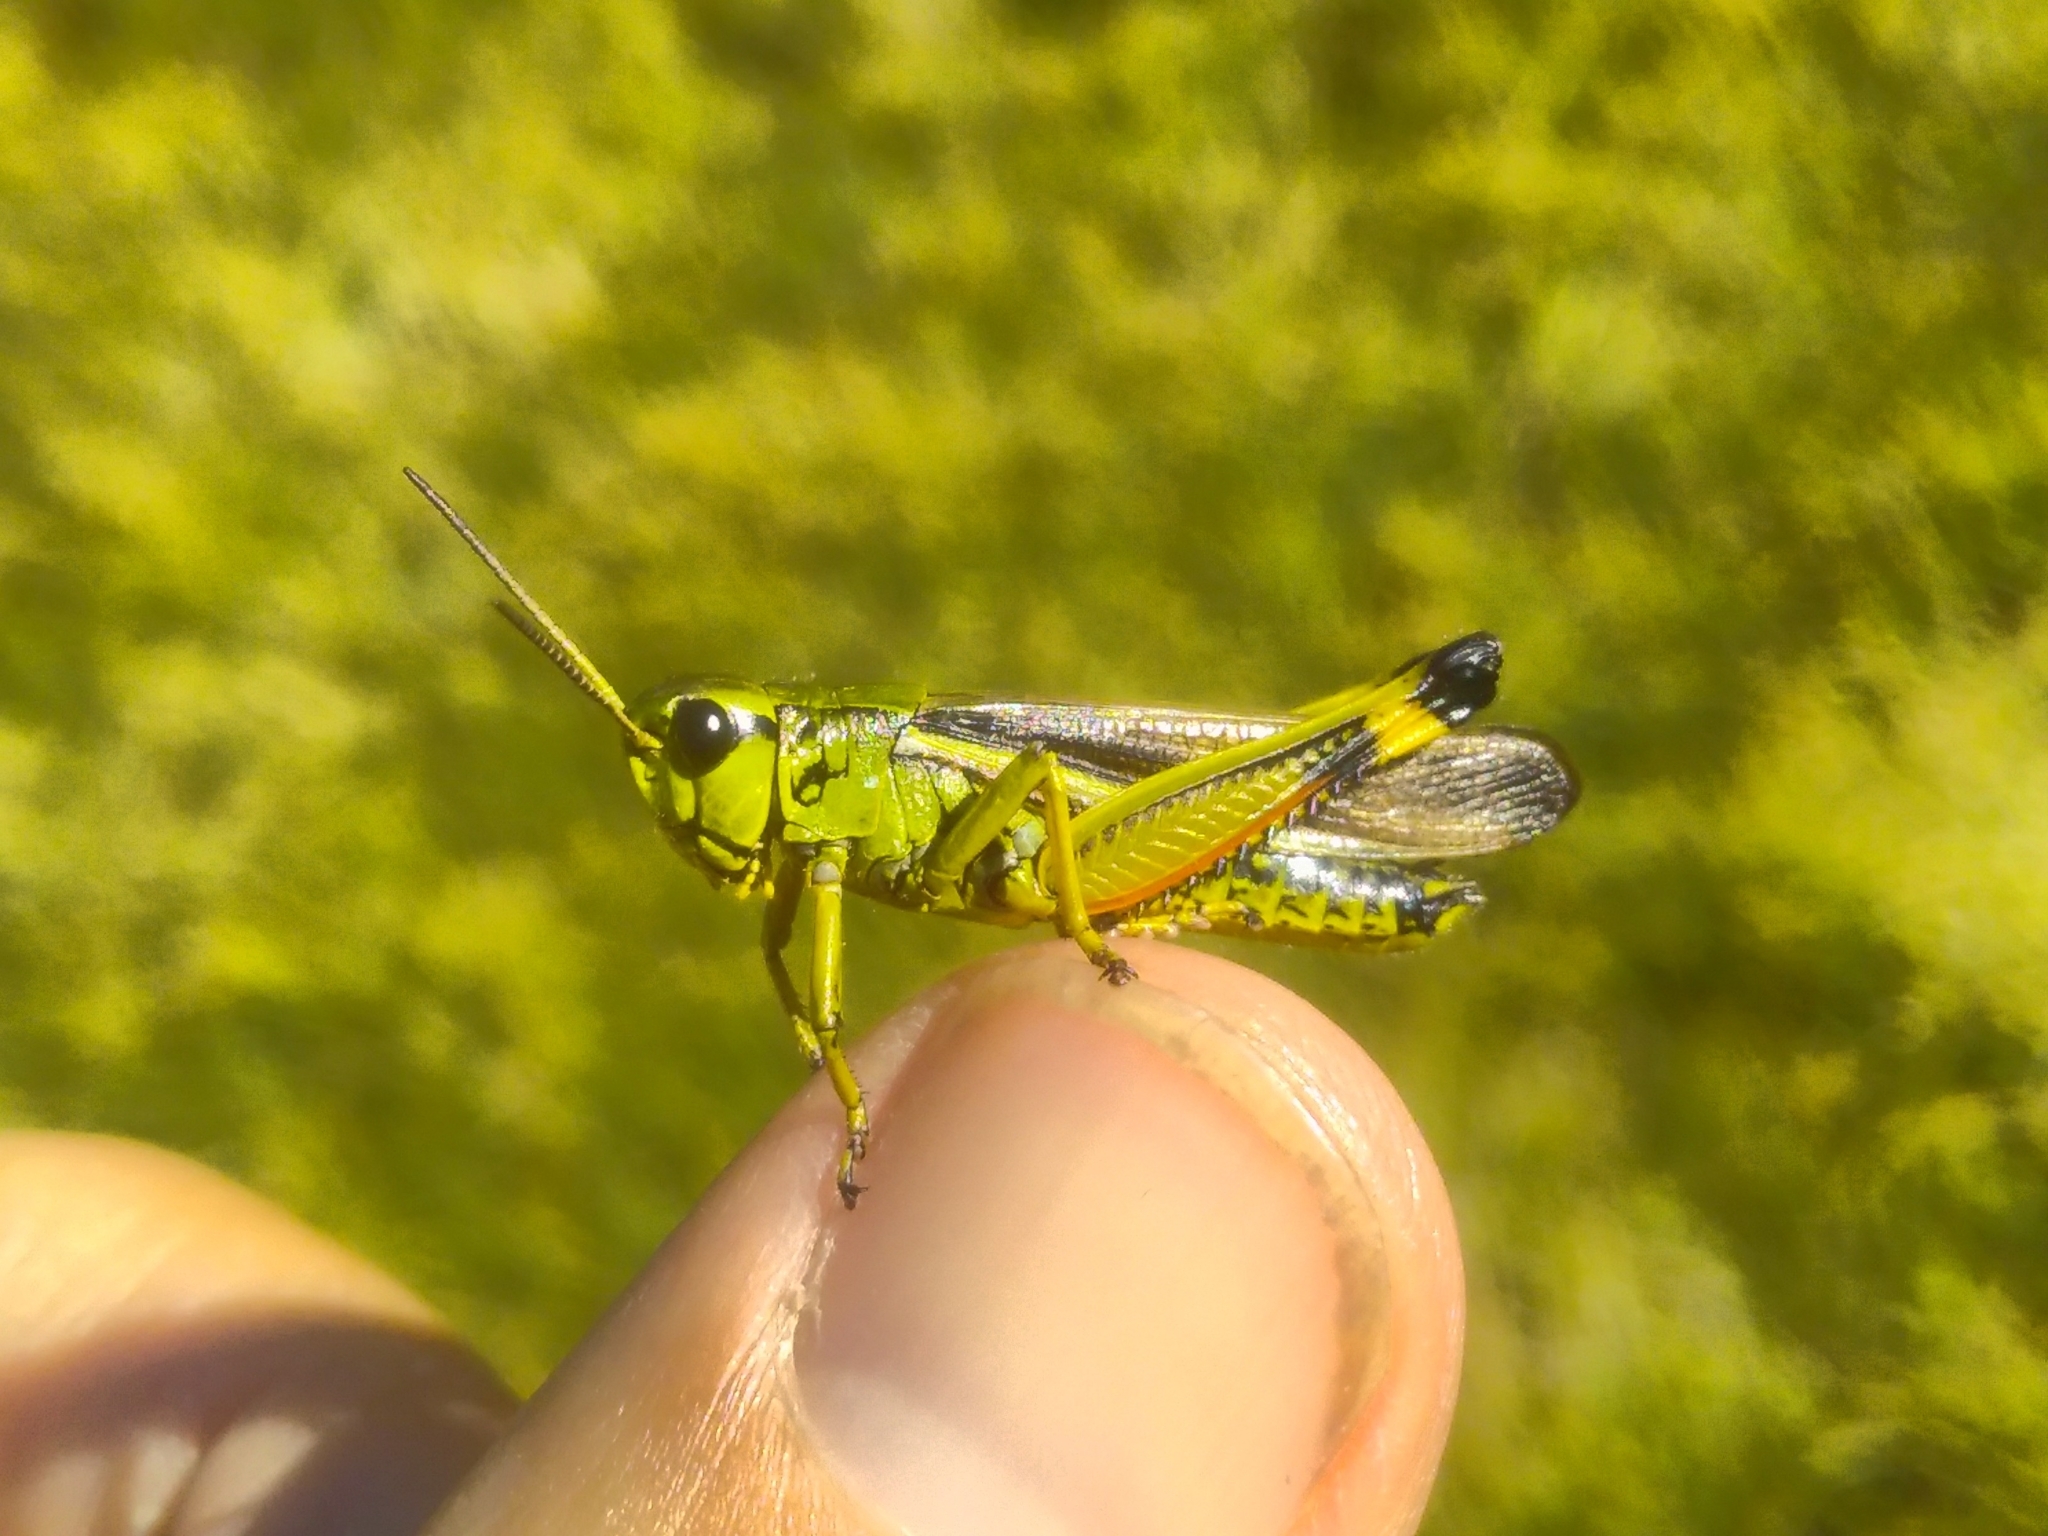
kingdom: Animalia
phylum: Arthropoda
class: Insecta
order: Orthoptera
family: Acrididae
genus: Stethophyma
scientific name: Stethophyma grossum
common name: Large marsh grasshopper
